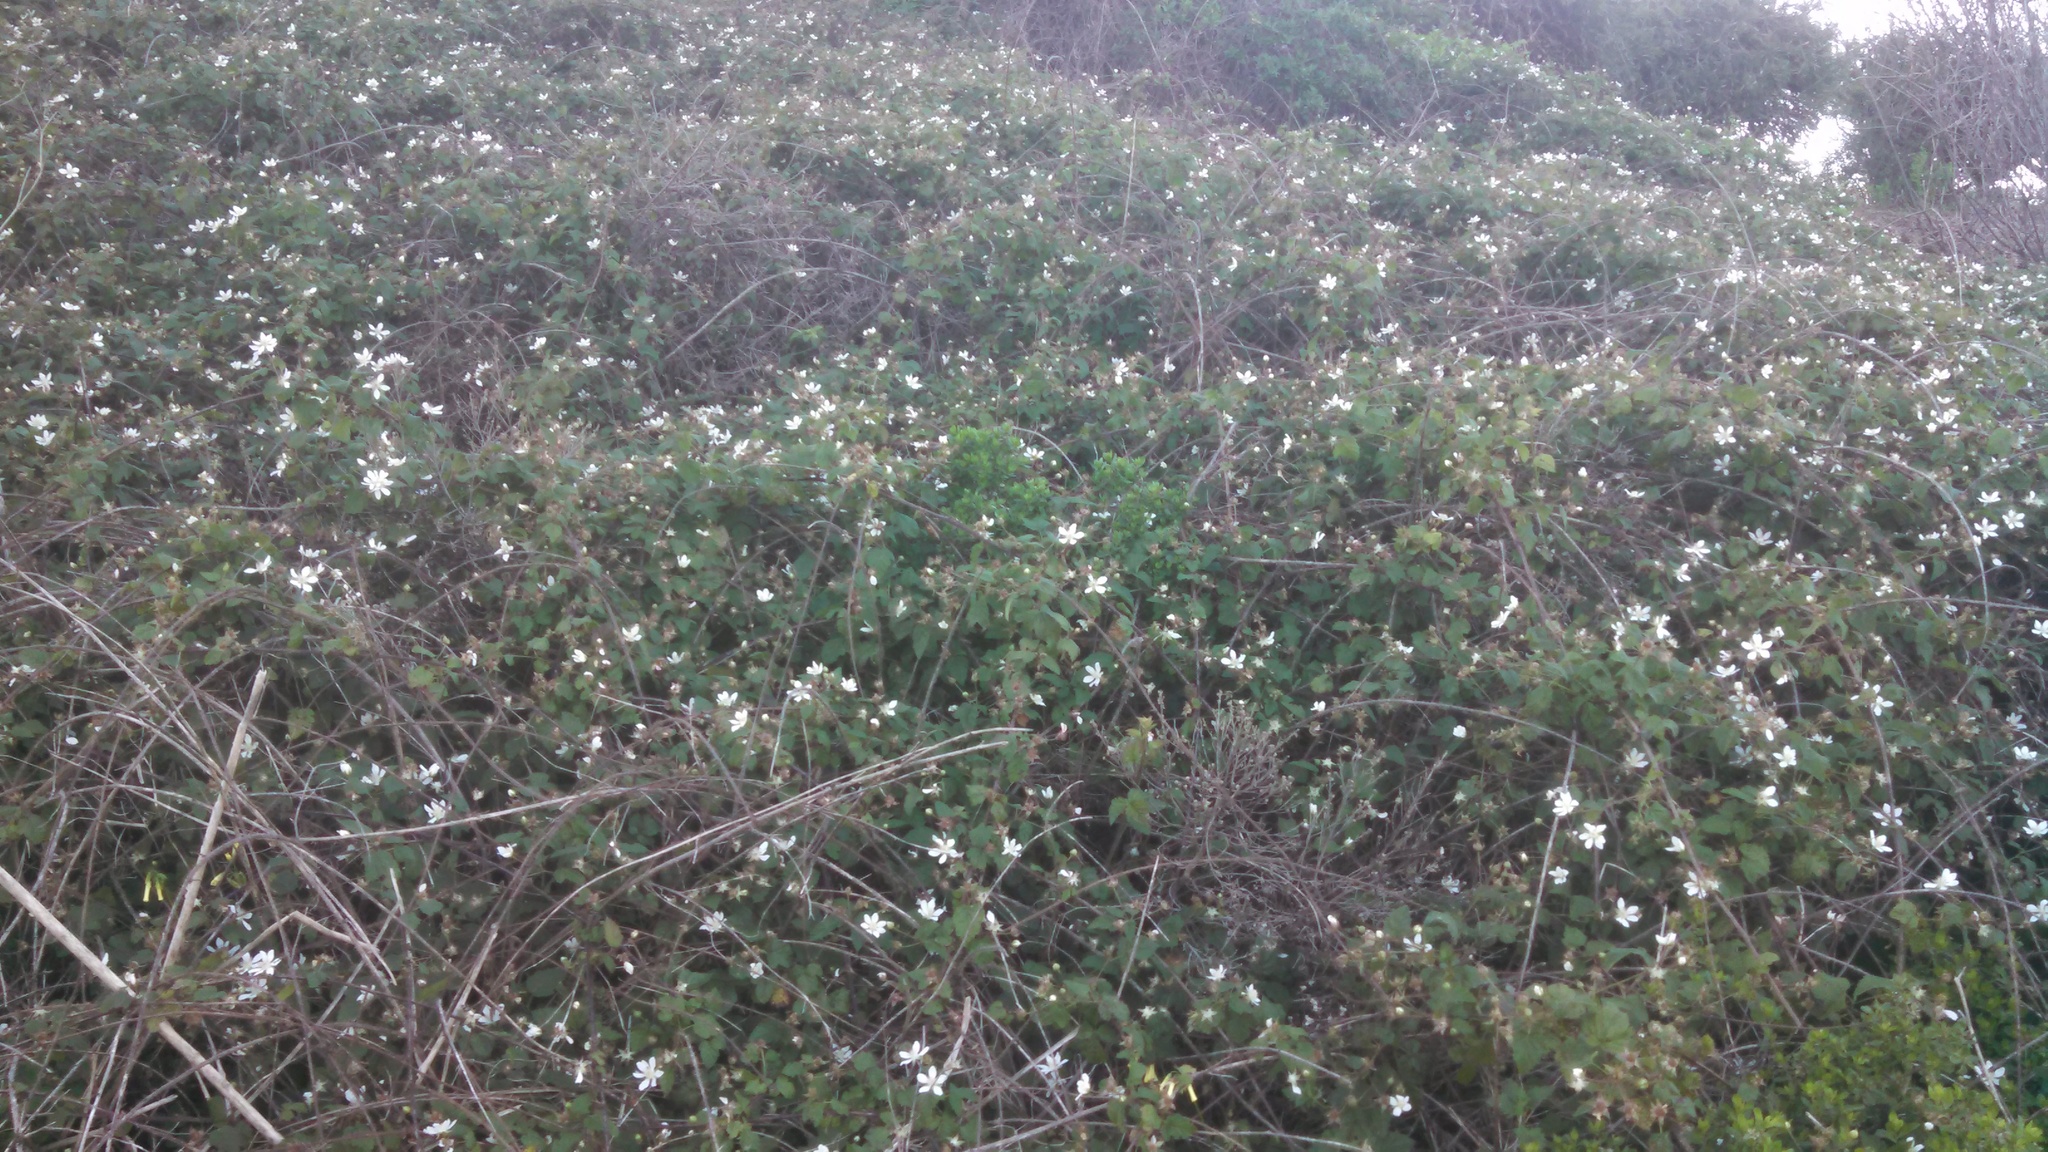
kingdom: Plantae
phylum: Tracheophyta
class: Magnoliopsida
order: Rosales
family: Rosaceae
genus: Rubus
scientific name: Rubus ursinus
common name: Pacific blackberry
